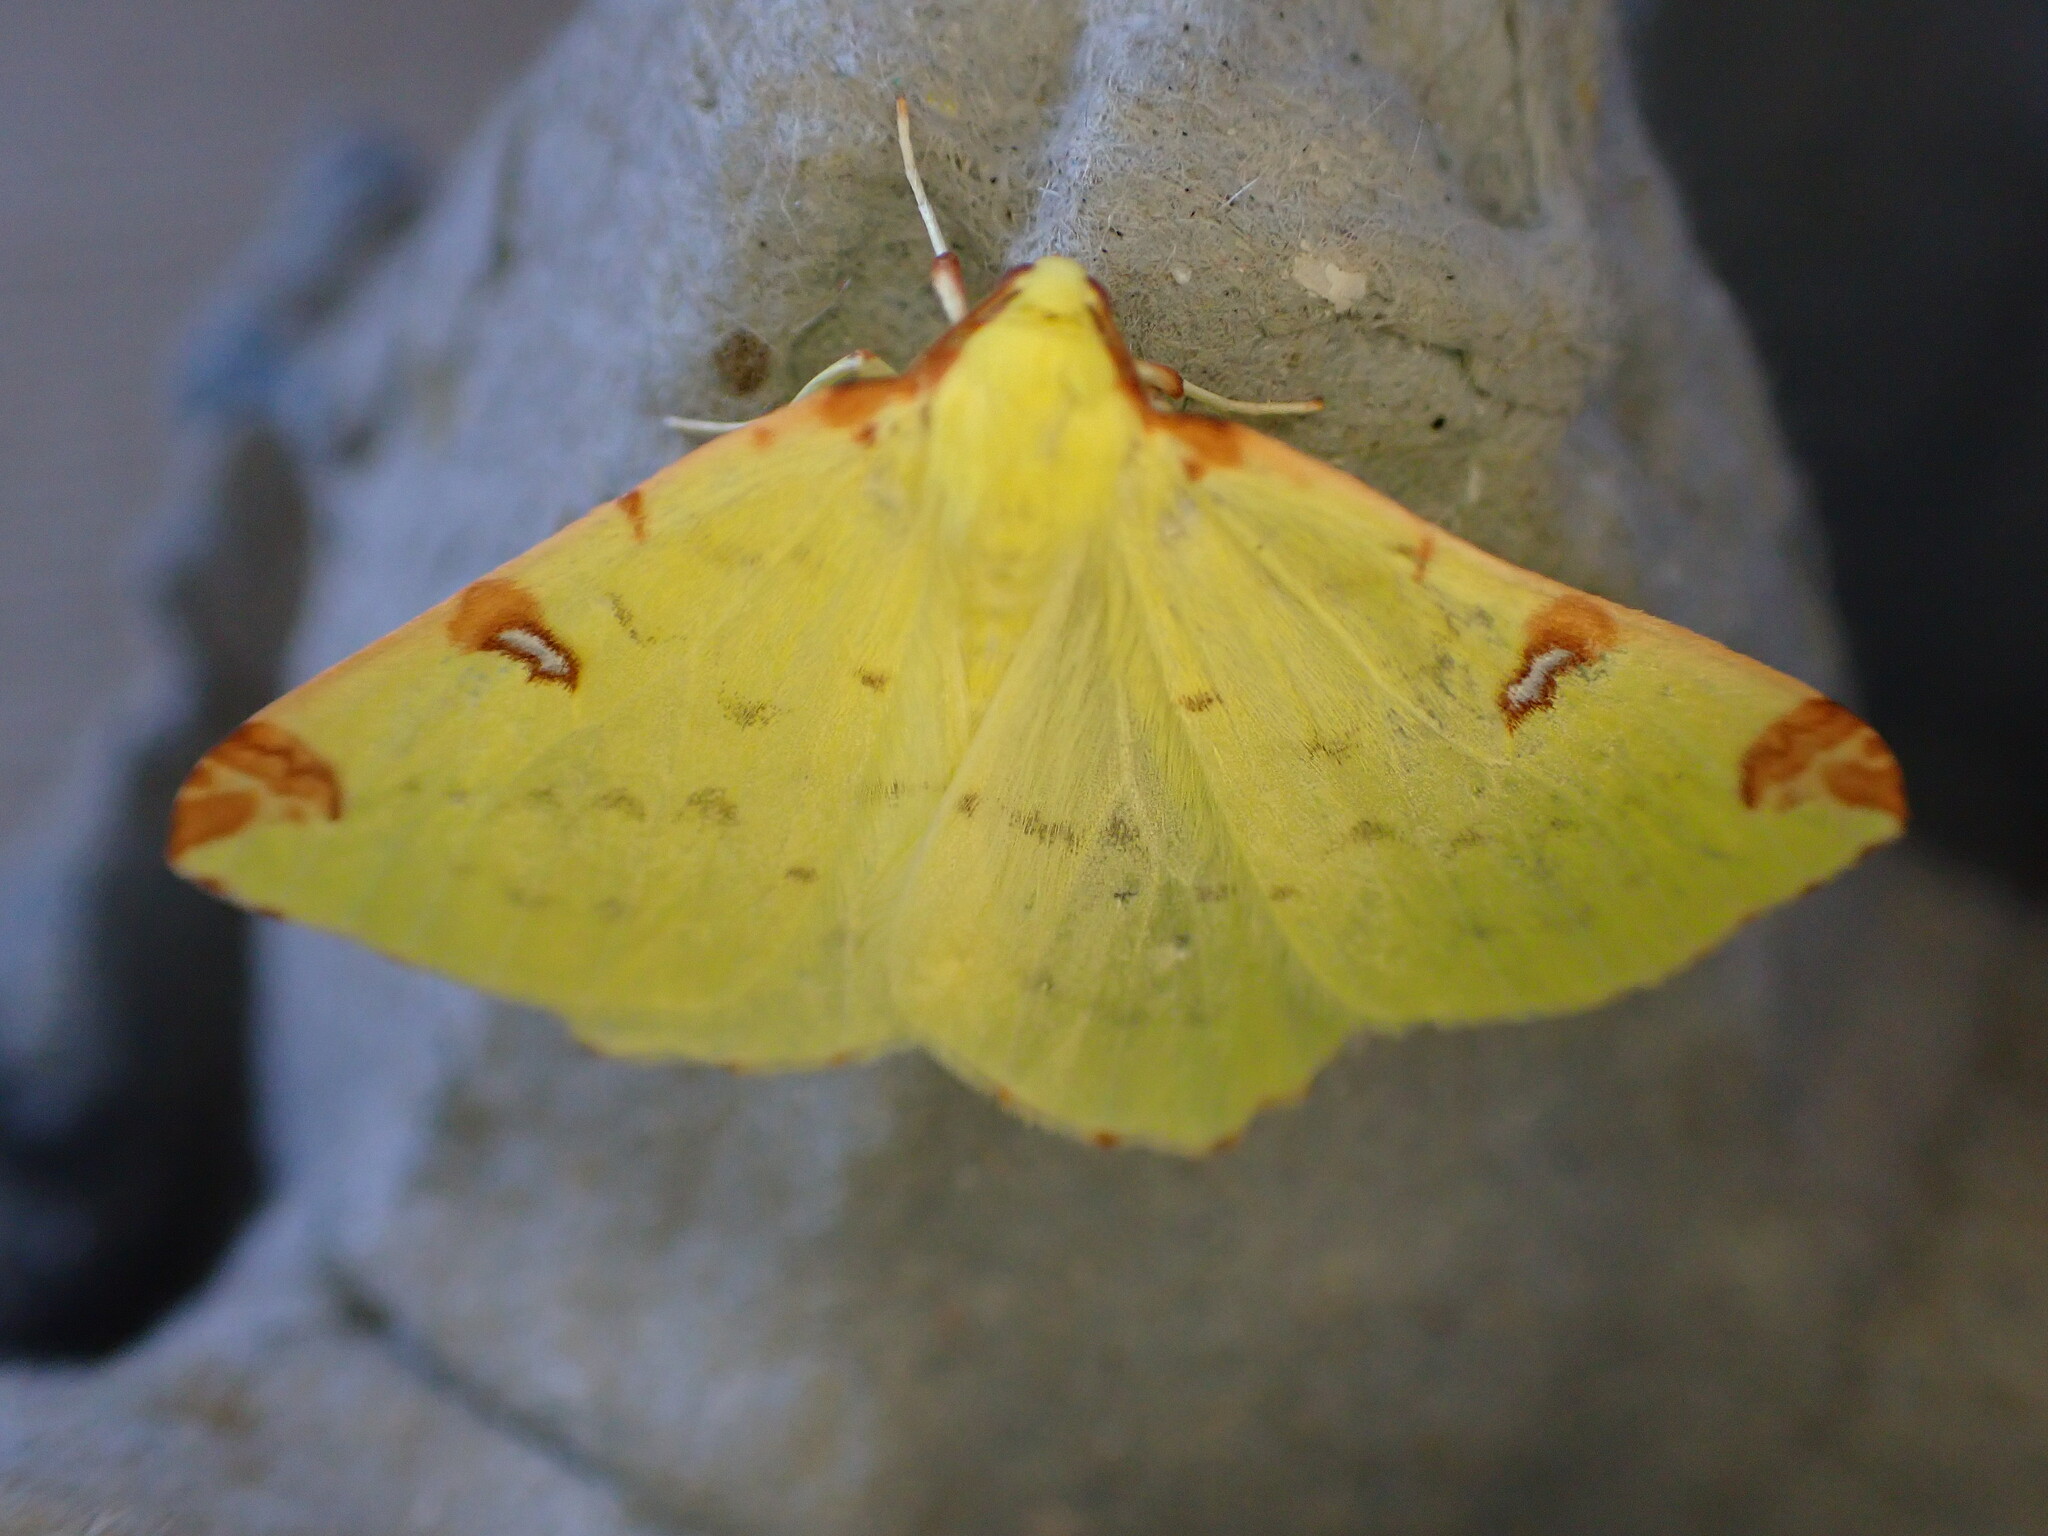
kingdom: Animalia
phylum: Arthropoda
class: Insecta
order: Lepidoptera
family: Geometridae
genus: Opisthograptis
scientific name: Opisthograptis luteolata
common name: Brimstone moth
